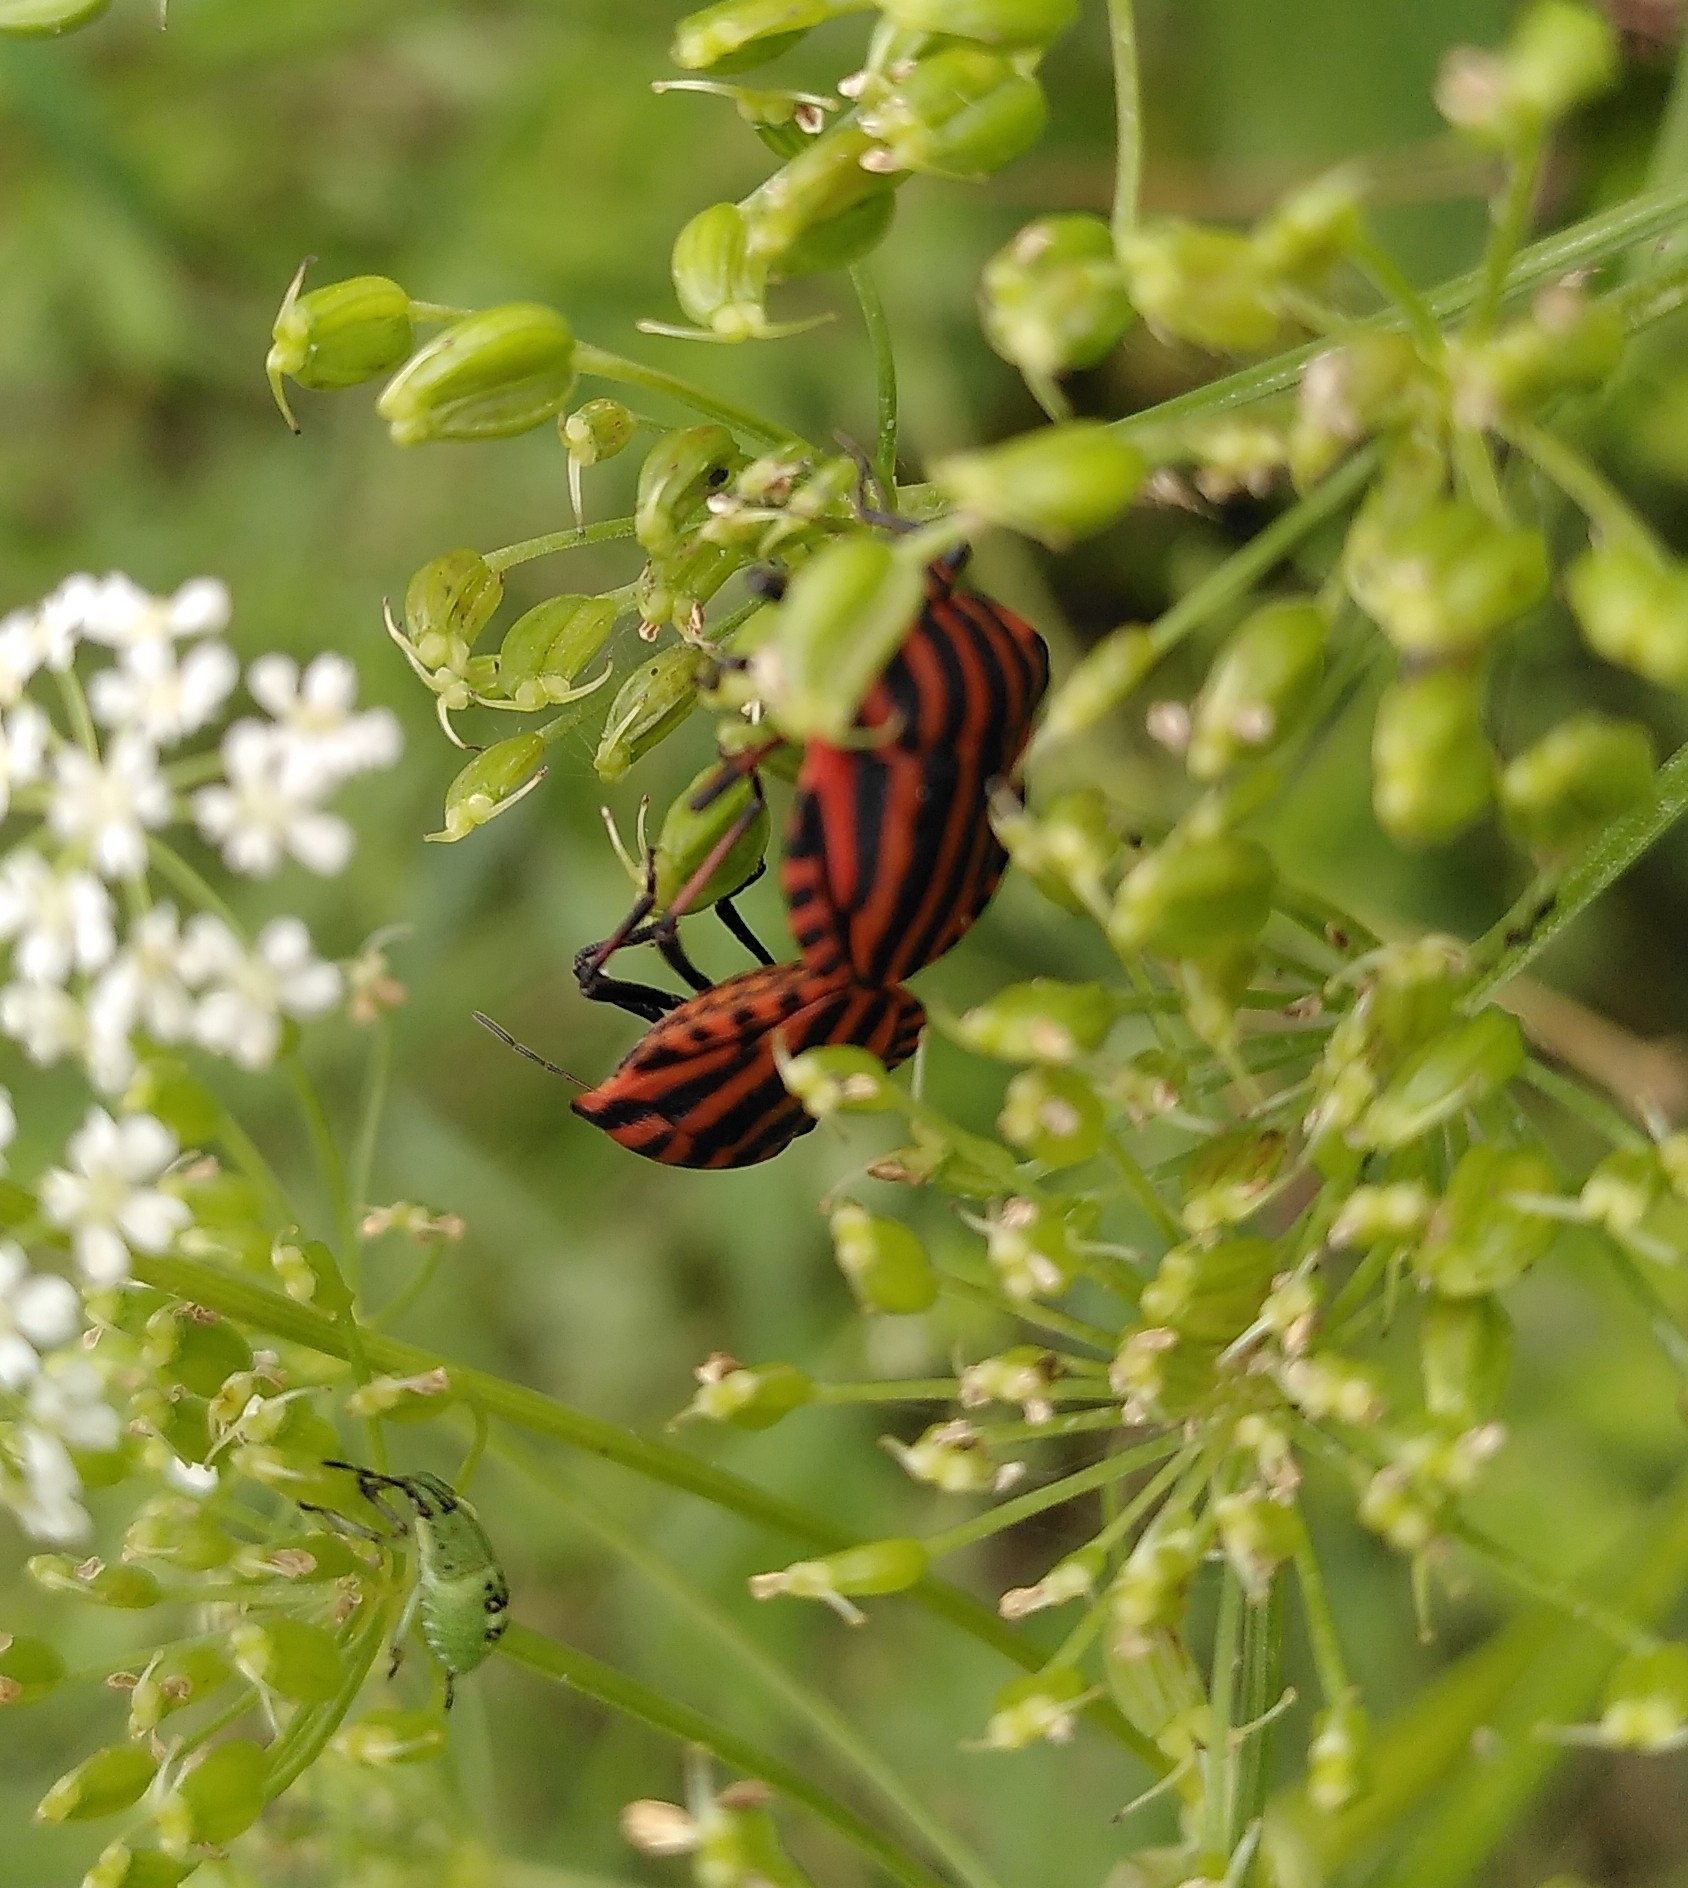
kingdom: Animalia
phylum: Arthropoda
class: Insecta
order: Hemiptera
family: Pentatomidae
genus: Graphosoma
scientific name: Graphosoma italicum
